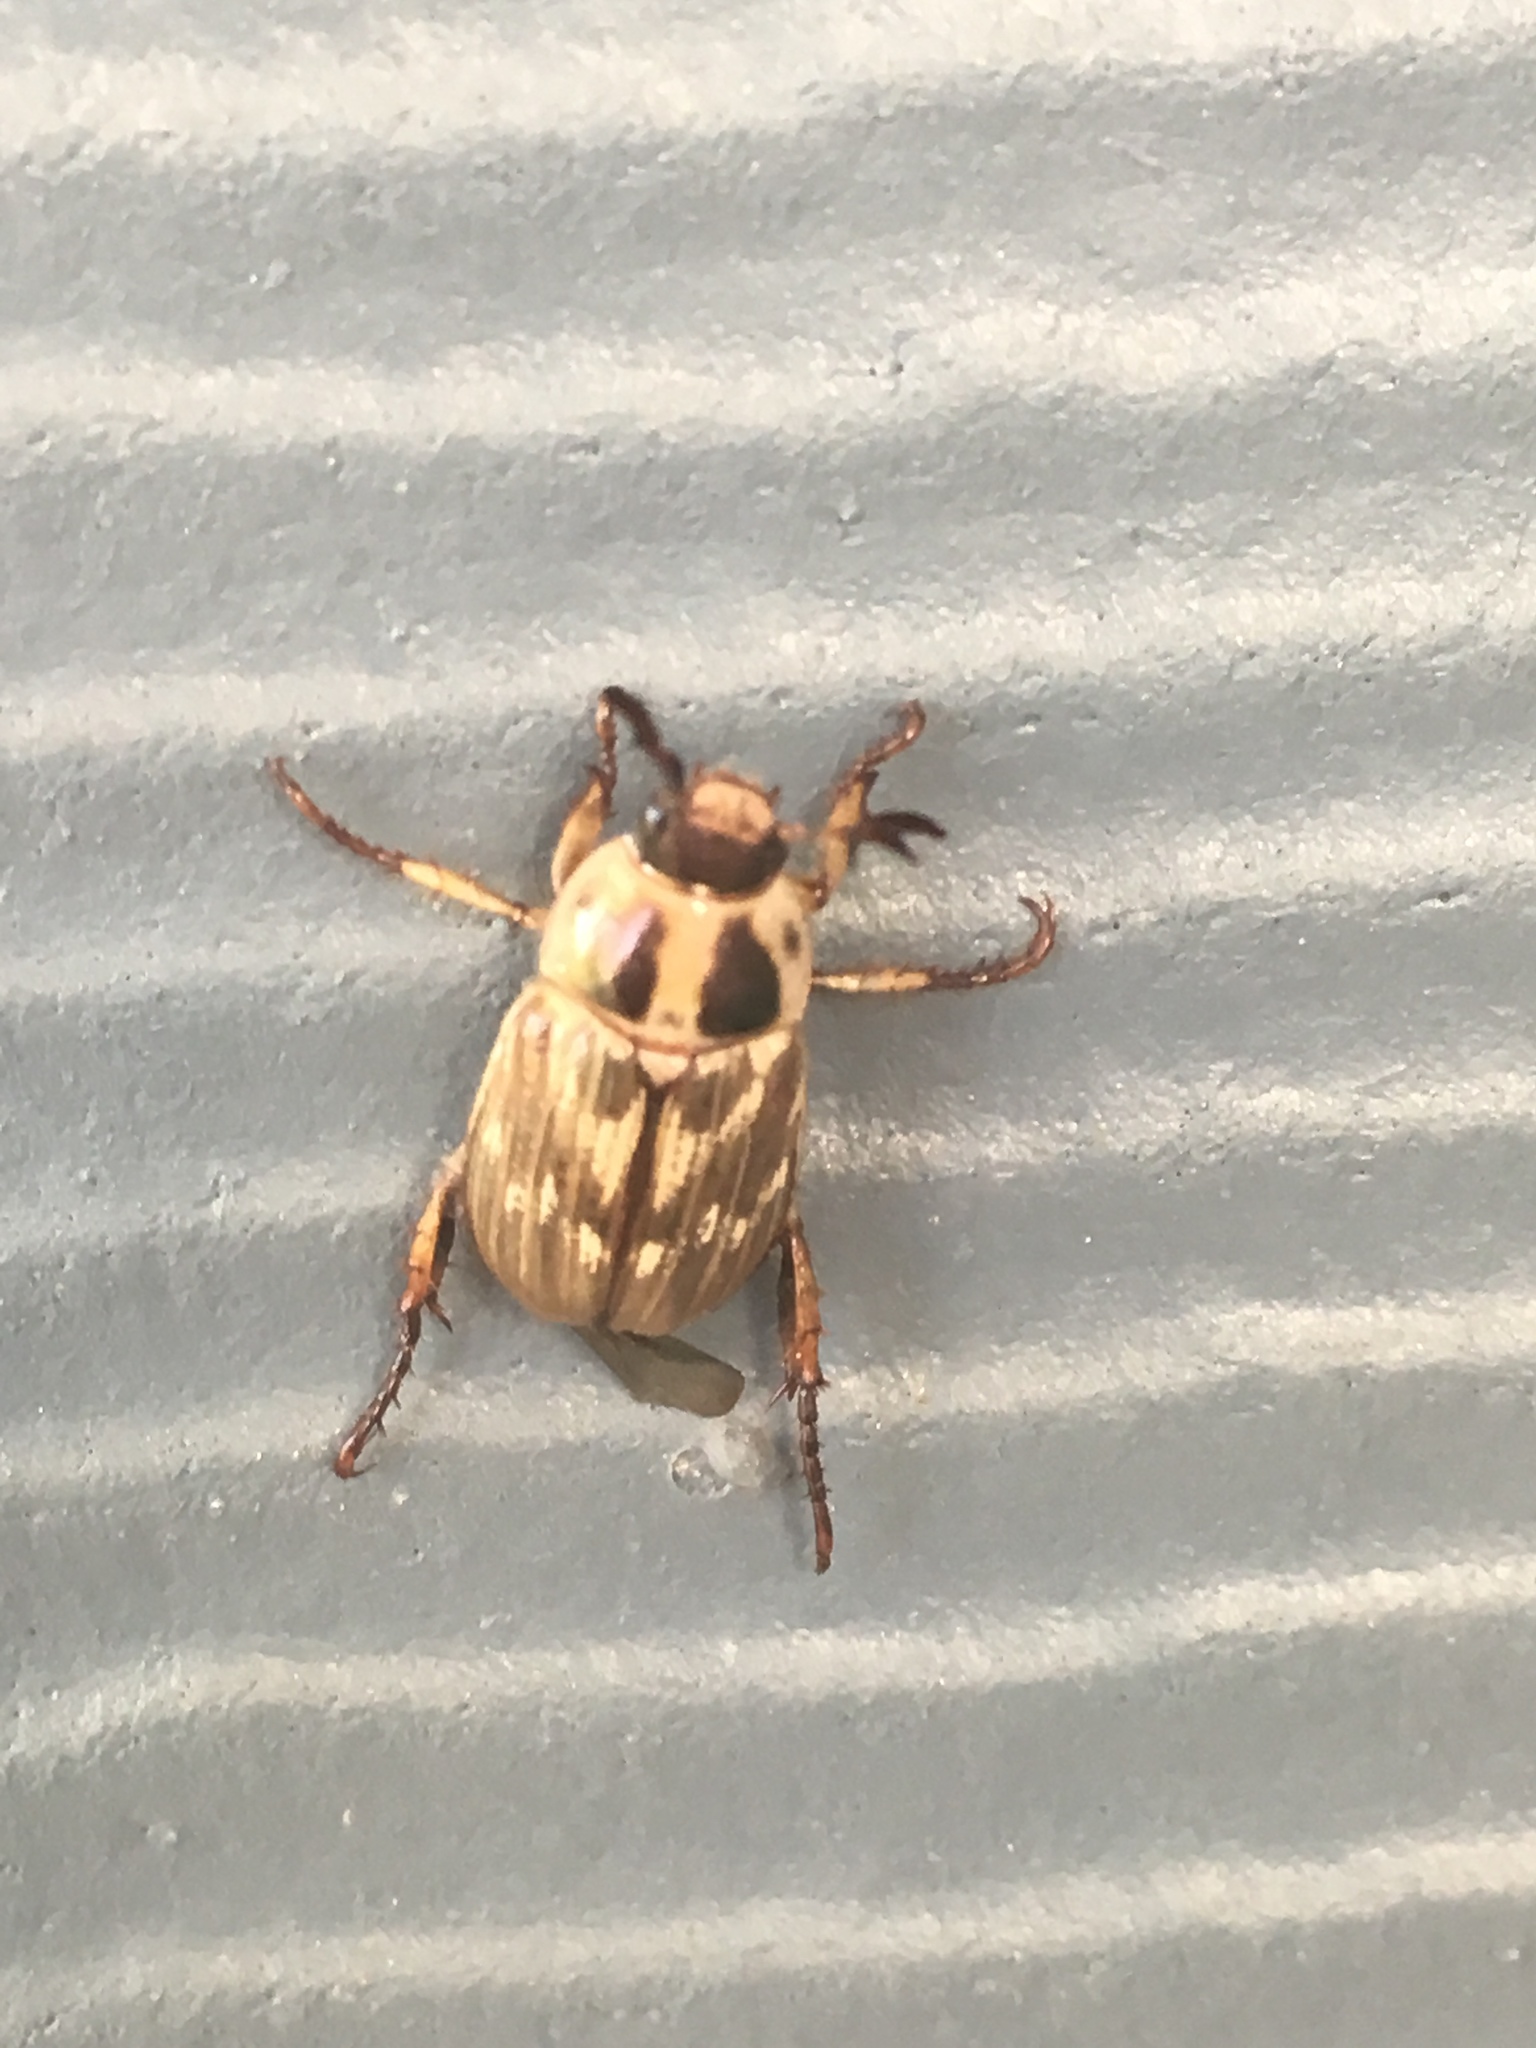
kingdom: Animalia
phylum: Arthropoda
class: Insecta
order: Coleoptera
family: Scarabaeidae
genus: Exomala
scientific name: Exomala orientalis
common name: Oriental beetle
